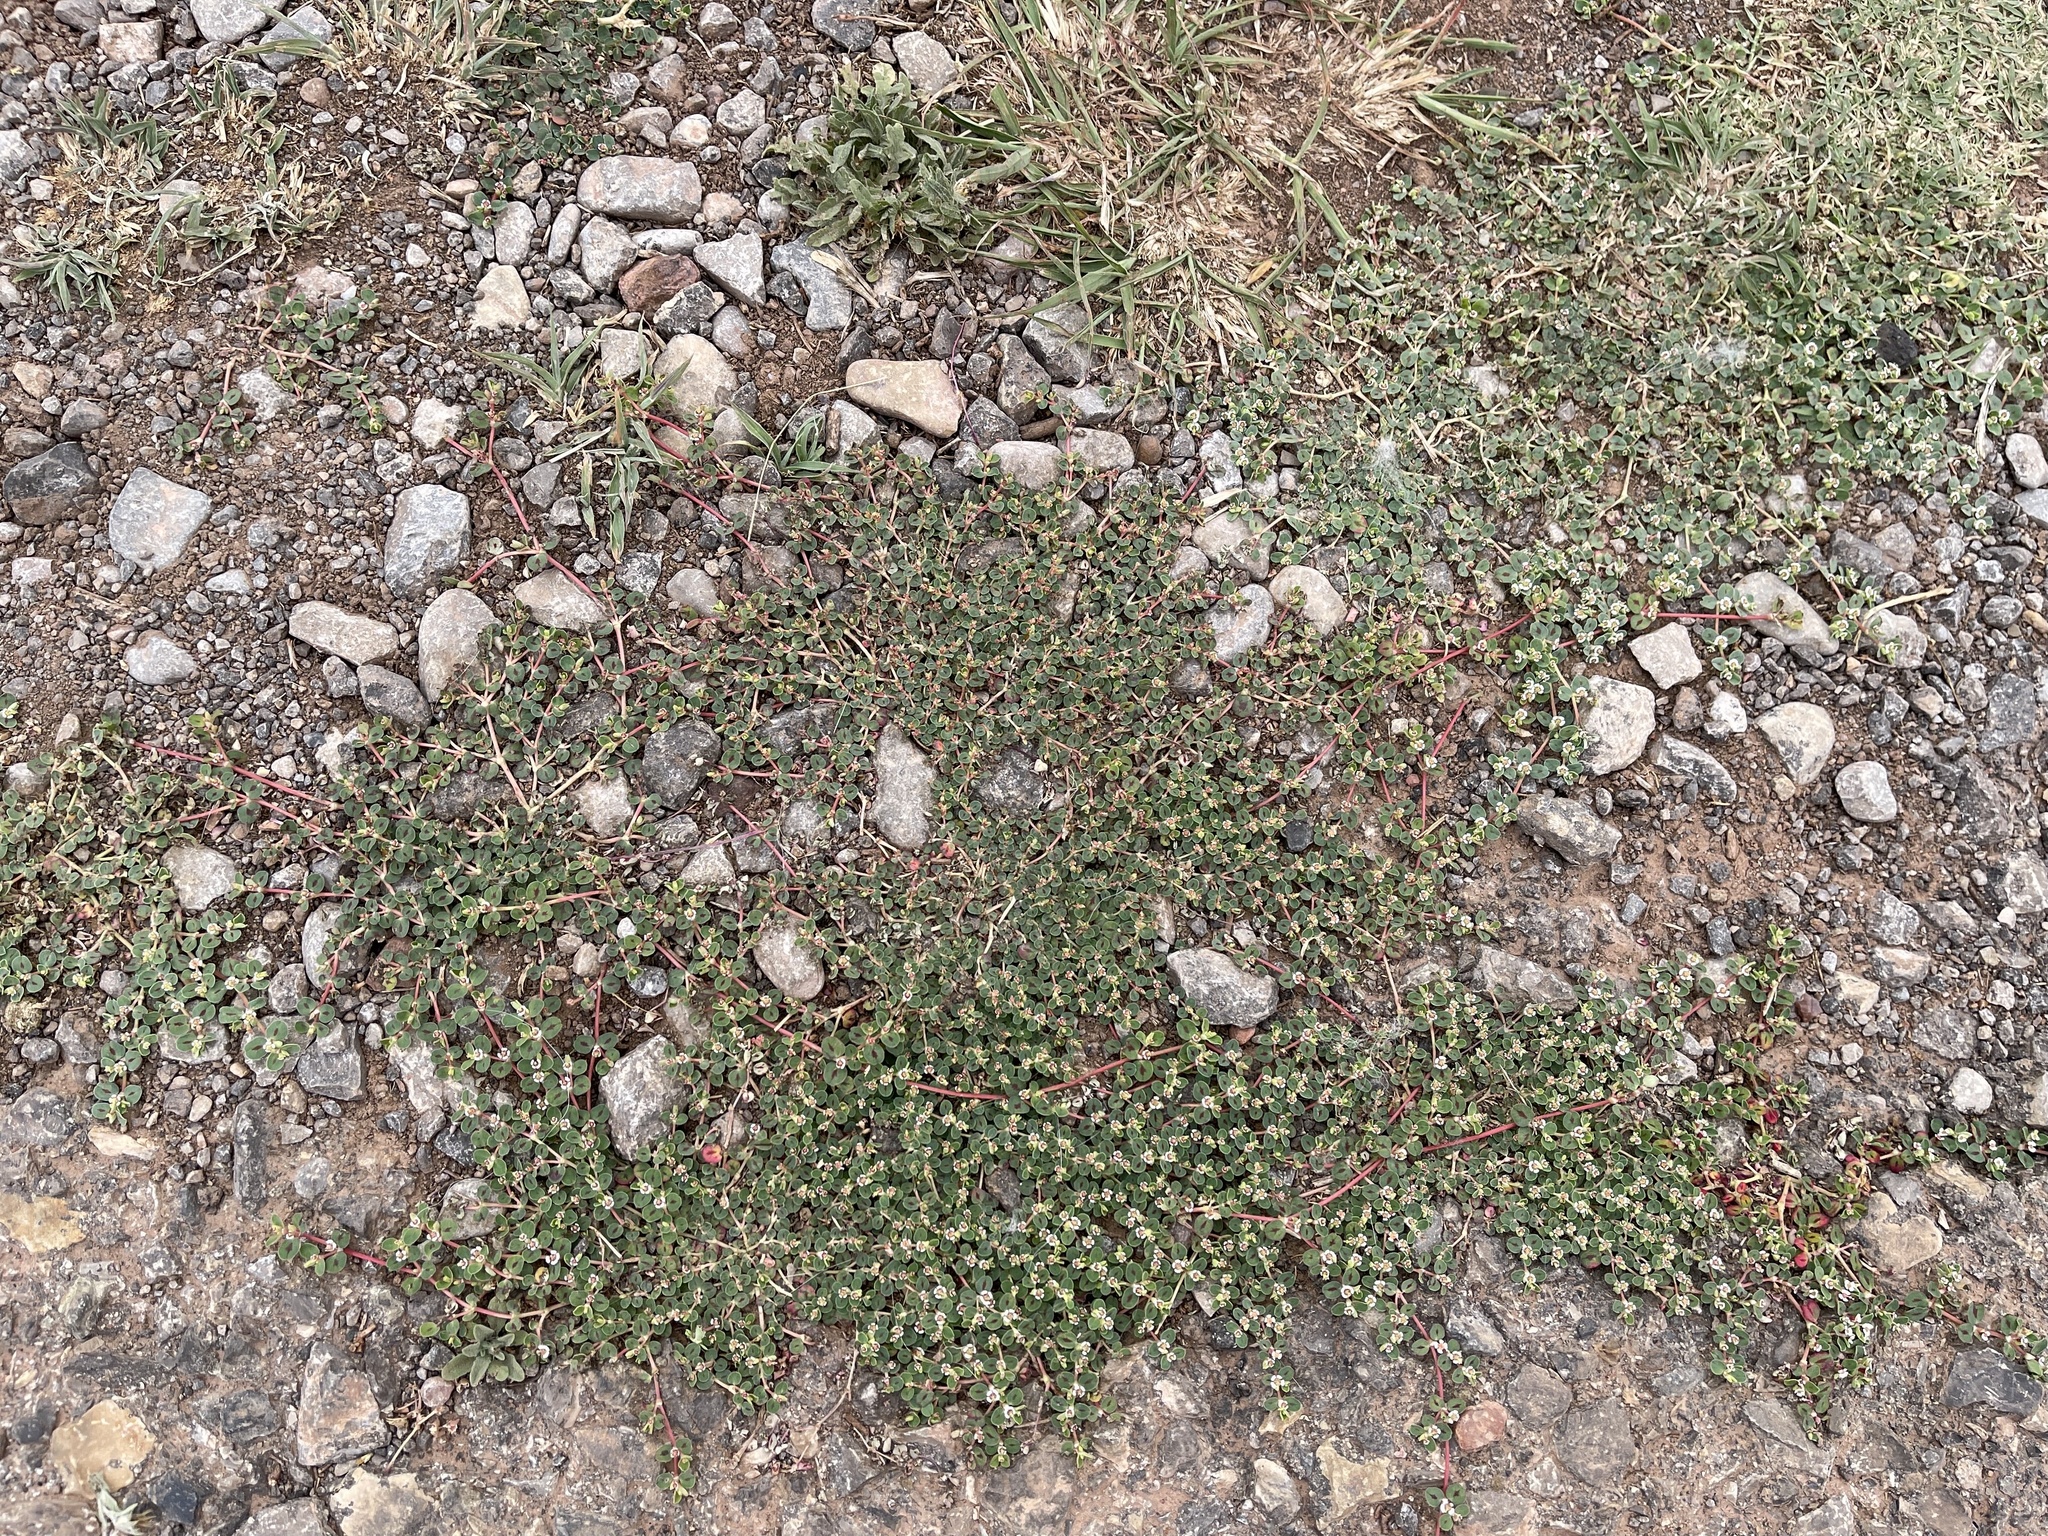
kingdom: Plantae
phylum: Tracheophyta
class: Magnoliopsida
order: Malpighiales
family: Euphorbiaceae
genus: Euphorbia
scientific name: Euphorbia albomarginata
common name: Whitemargin sandmat
